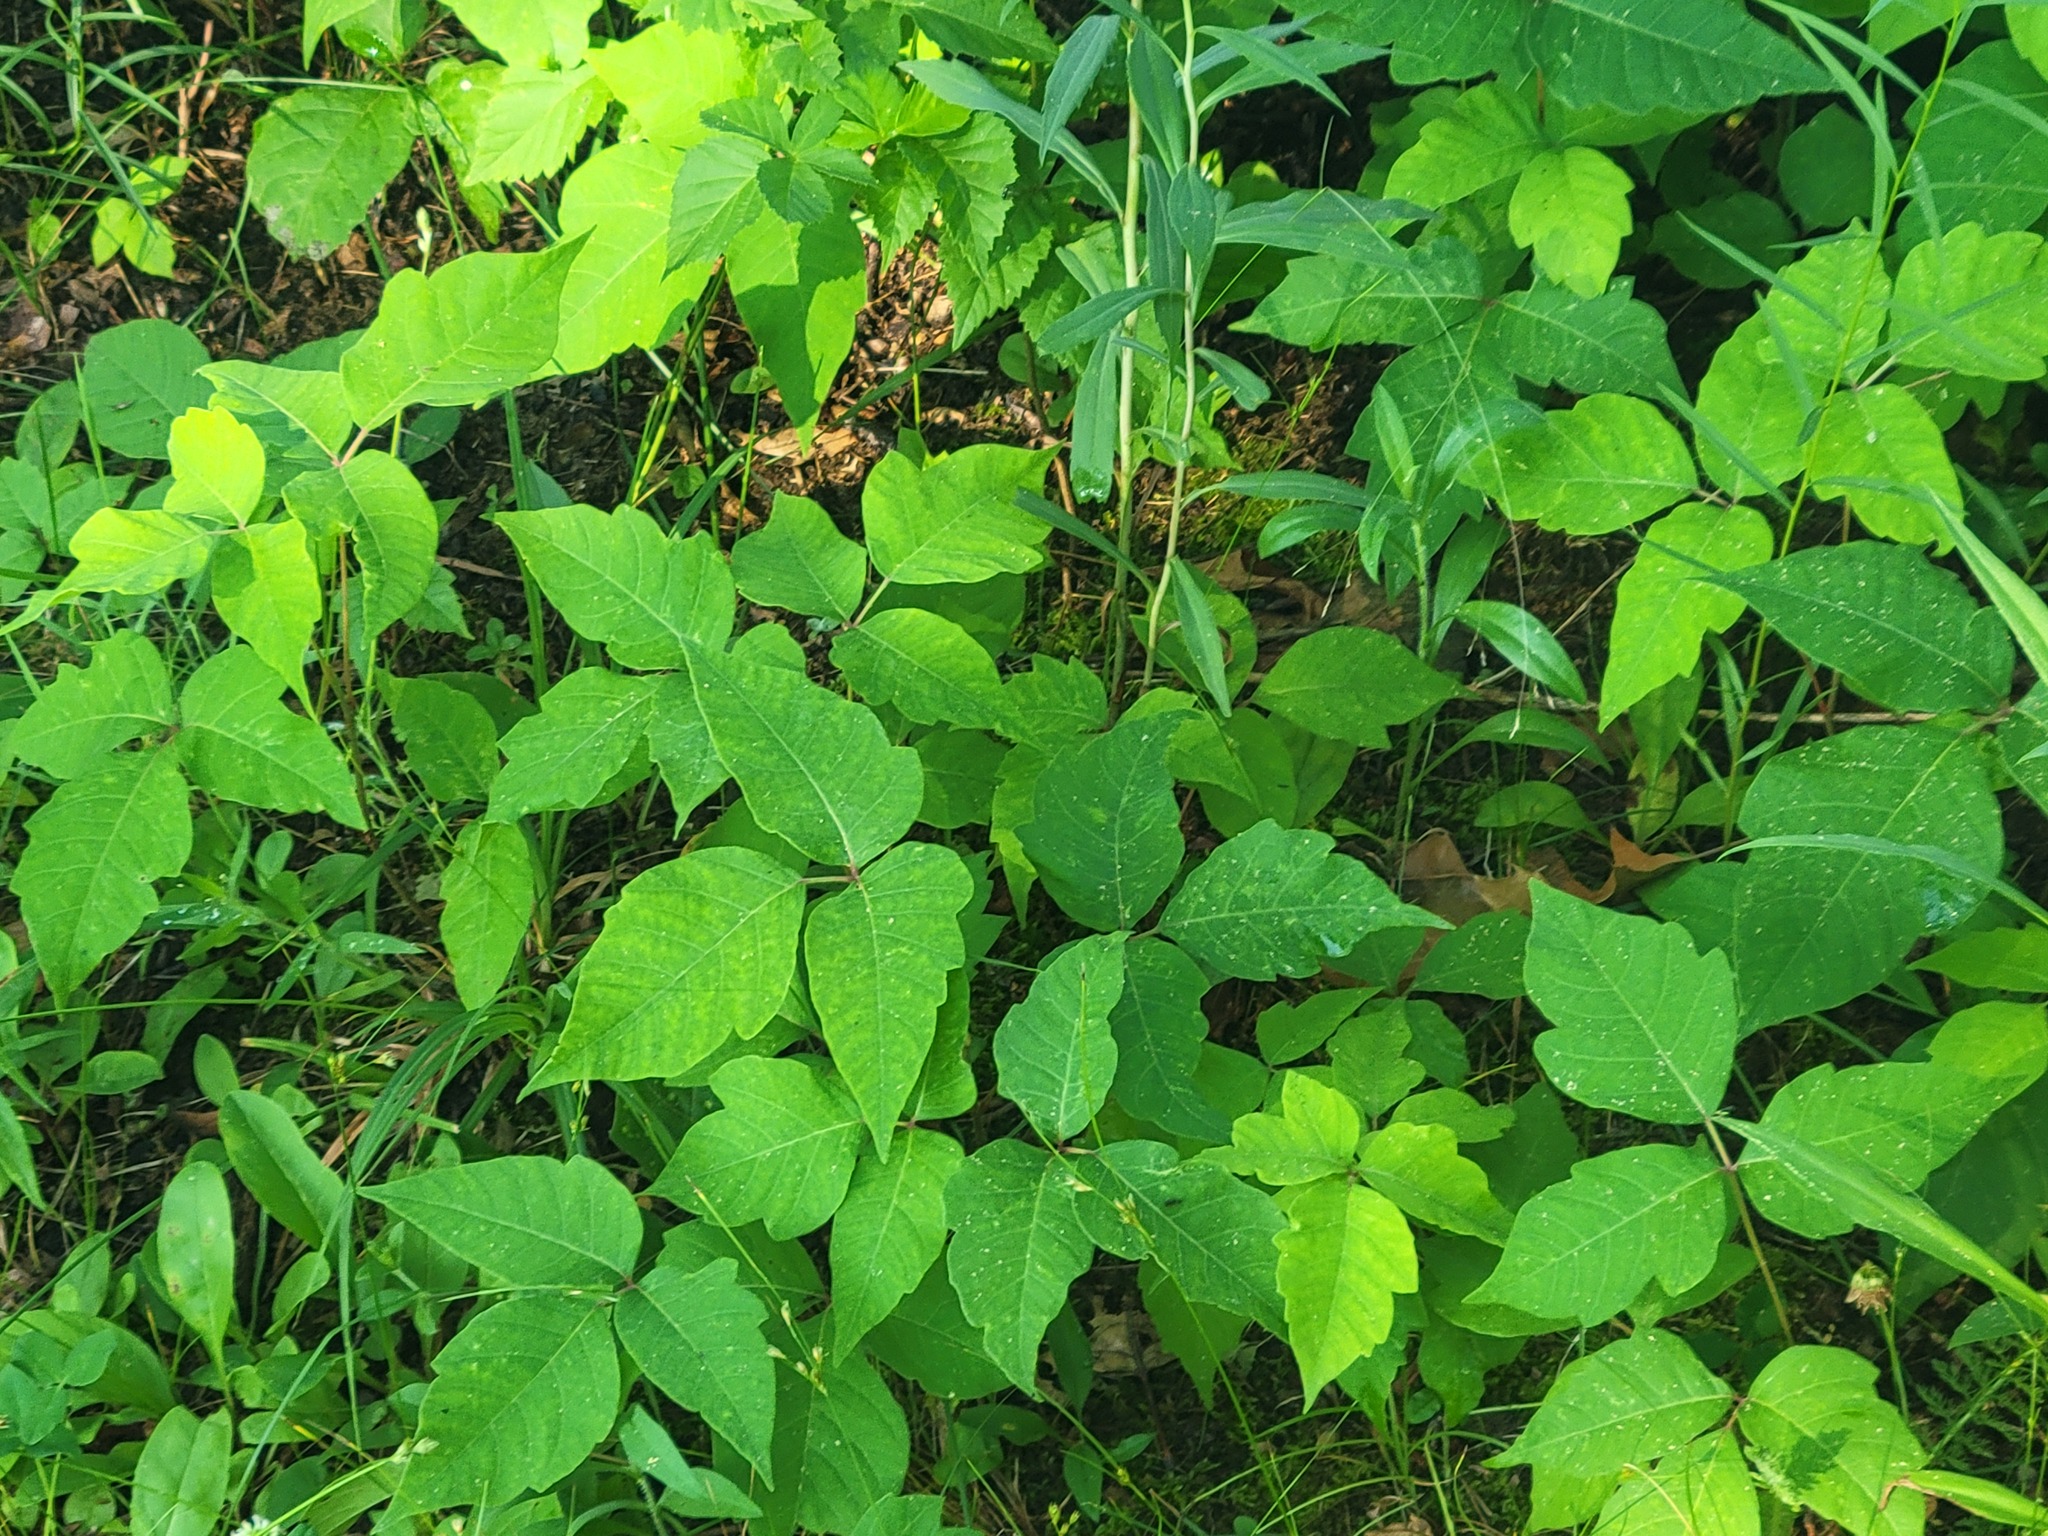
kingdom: Plantae
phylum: Tracheophyta
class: Magnoliopsida
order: Sapindales
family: Anacardiaceae
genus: Toxicodendron
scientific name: Toxicodendron radicans
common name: Poison ivy
